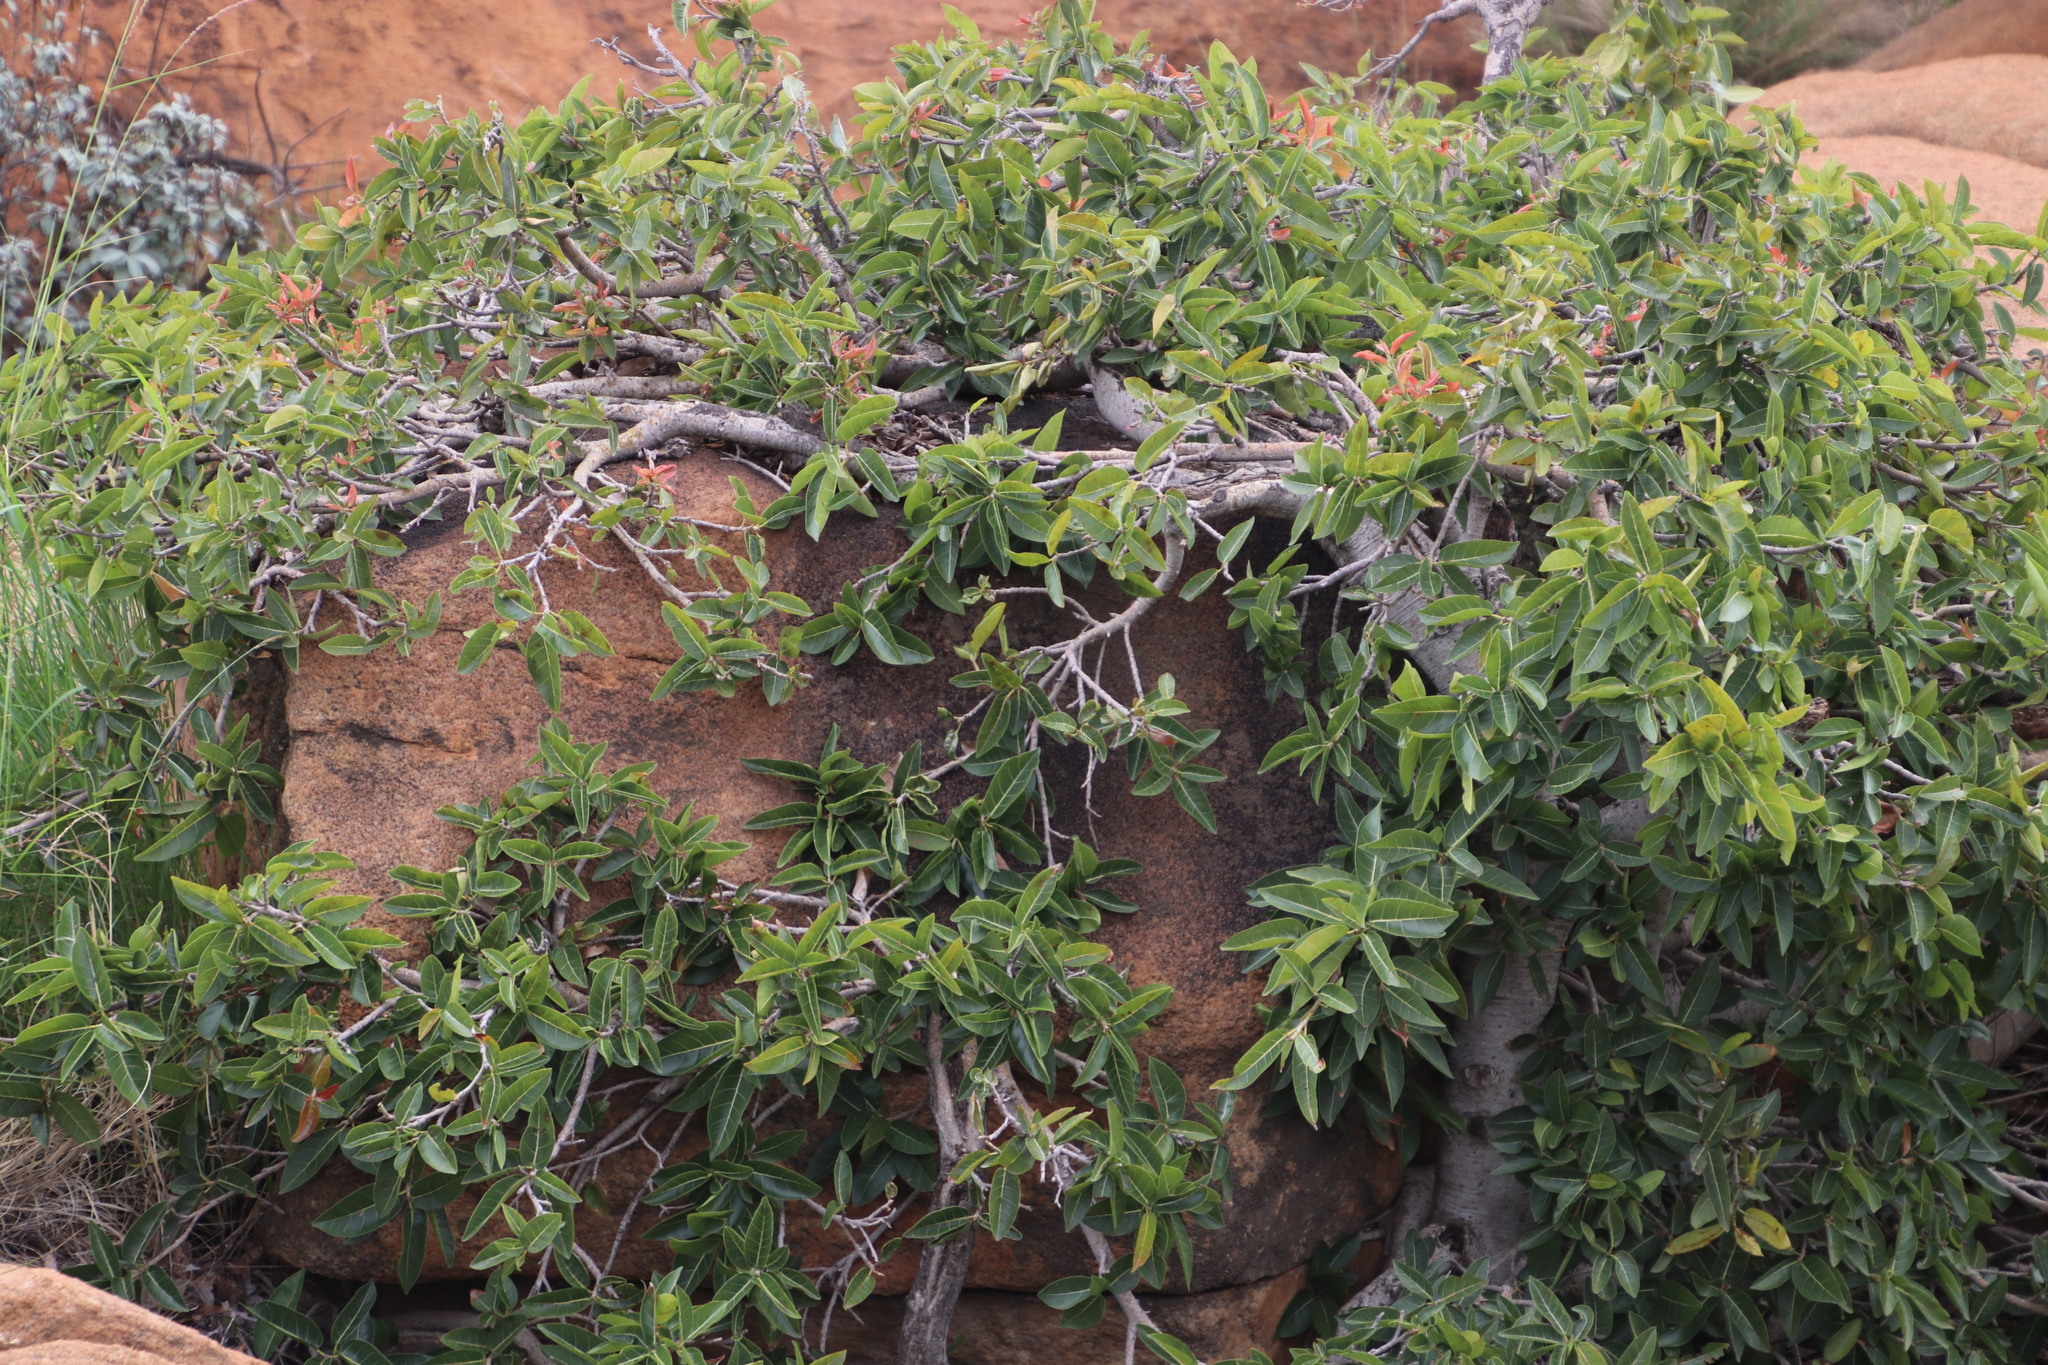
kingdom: Plantae
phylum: Tracheophyta
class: Magnoliopsida
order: Rosales
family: Moraceae
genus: Ficus
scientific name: Ficus ingens
